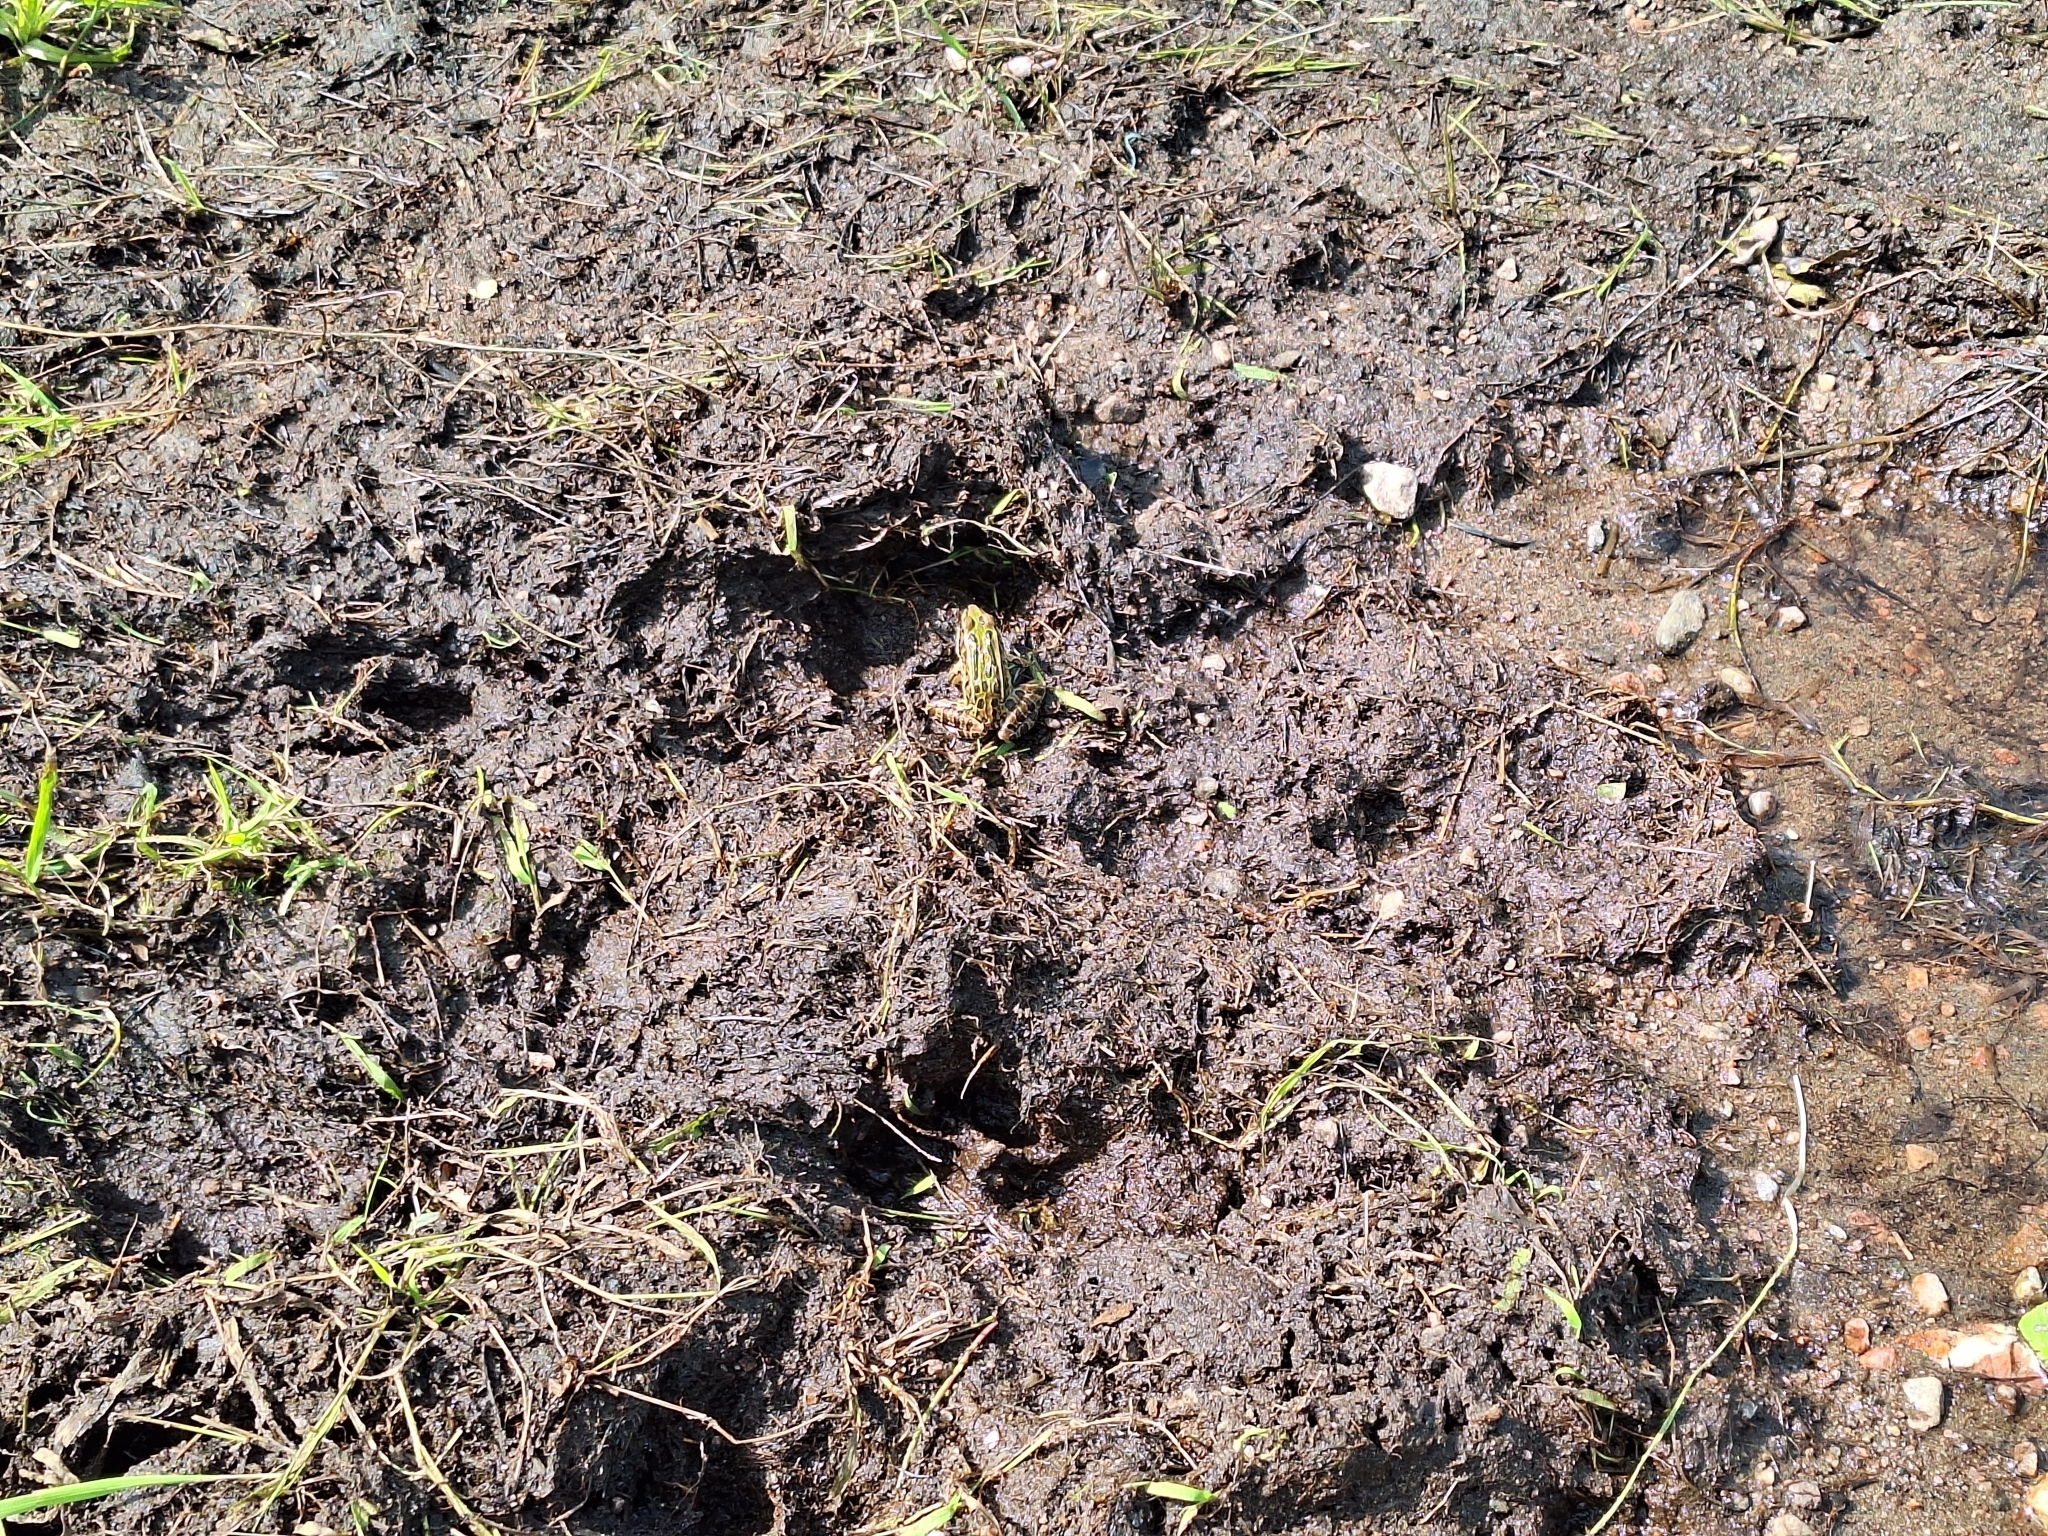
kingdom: Animalia
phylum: Chordata
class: Amphibia
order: Anura
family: Ranidae
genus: Lithobates
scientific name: Lithobates pipiens
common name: Northern leopard frog
